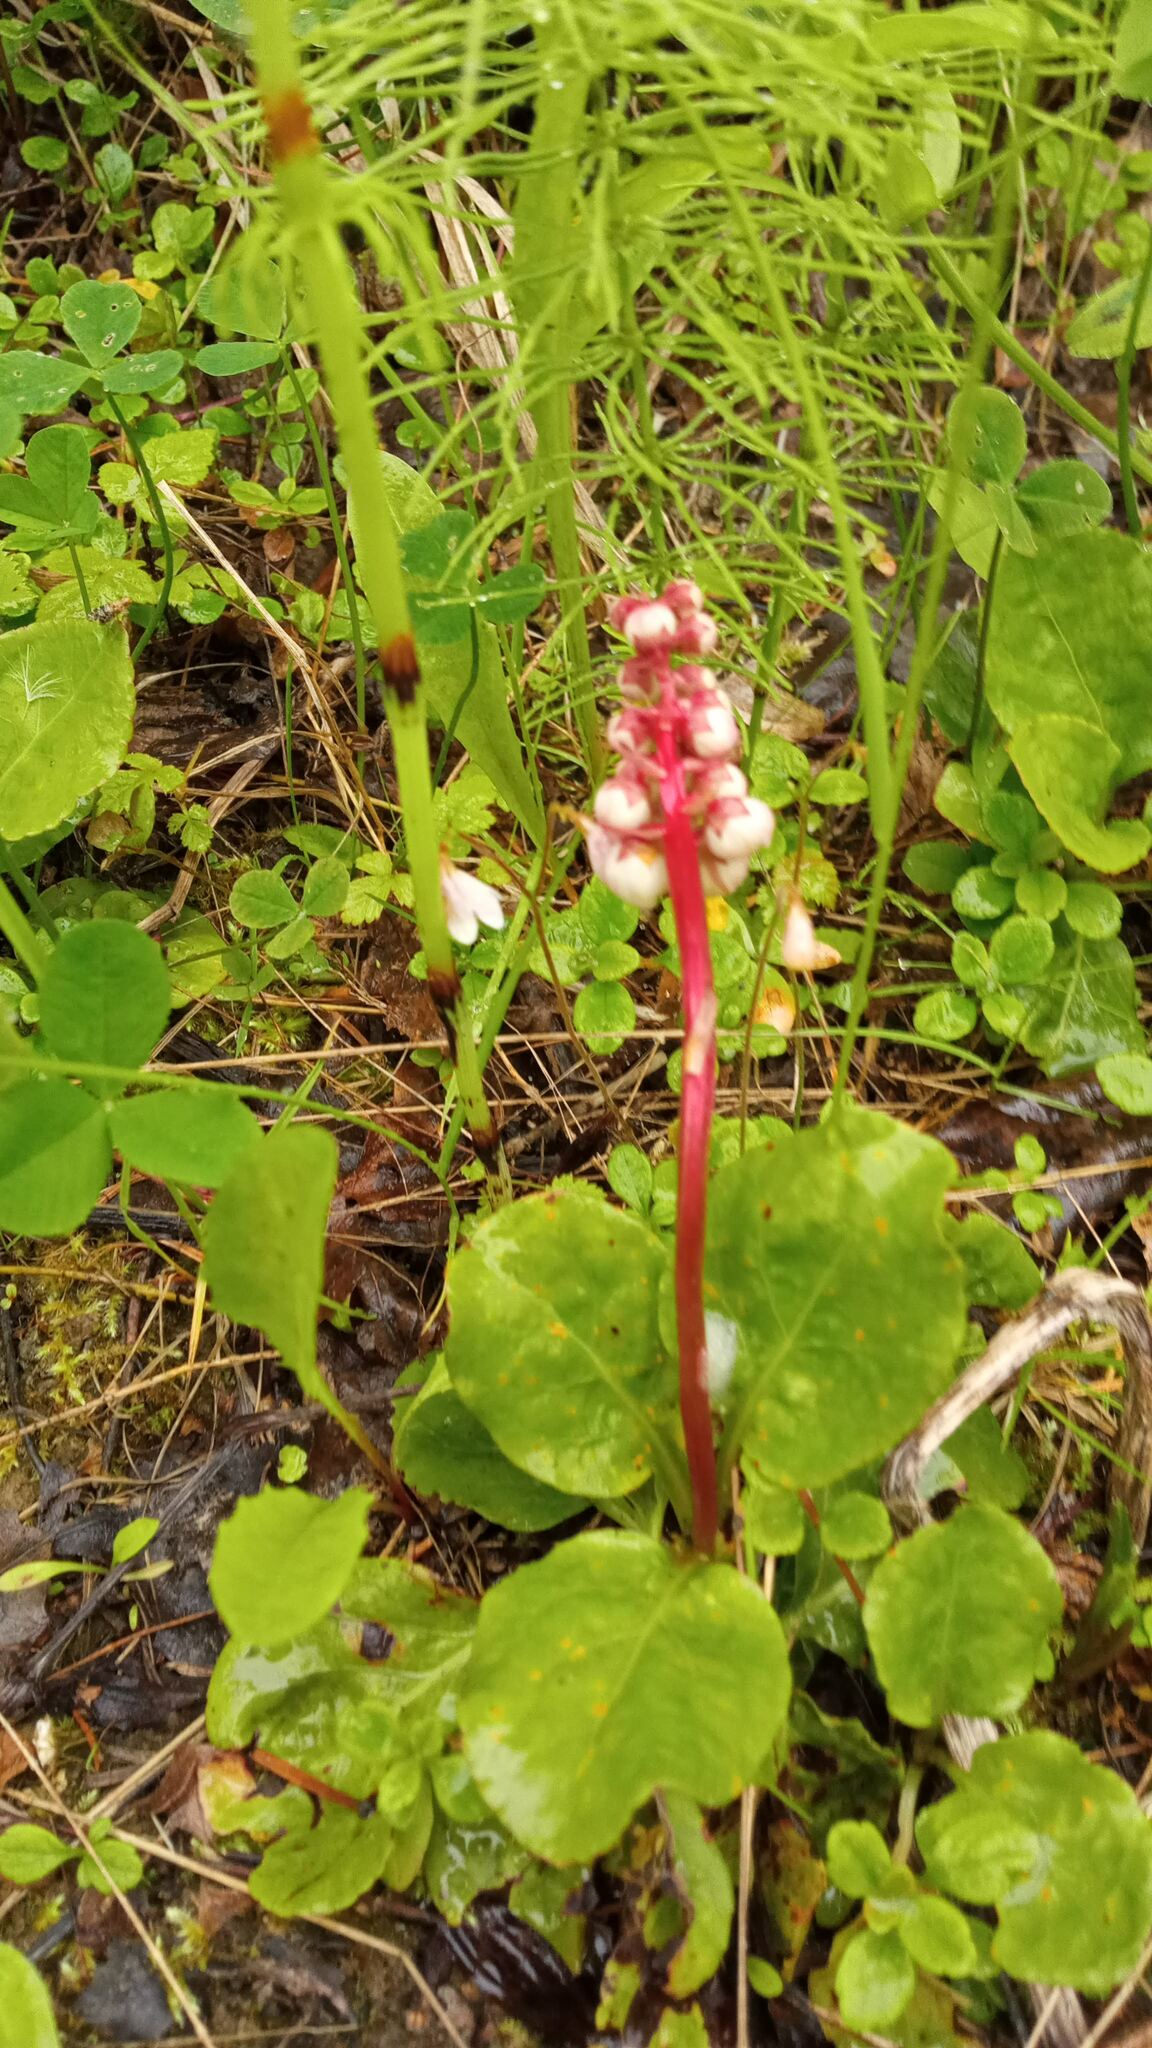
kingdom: Plantae
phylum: Tracheophyta
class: Magnoliopsida
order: Ericales
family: Ericaceae
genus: Pyrola
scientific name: Pyrola minor
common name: Common wintergreen
